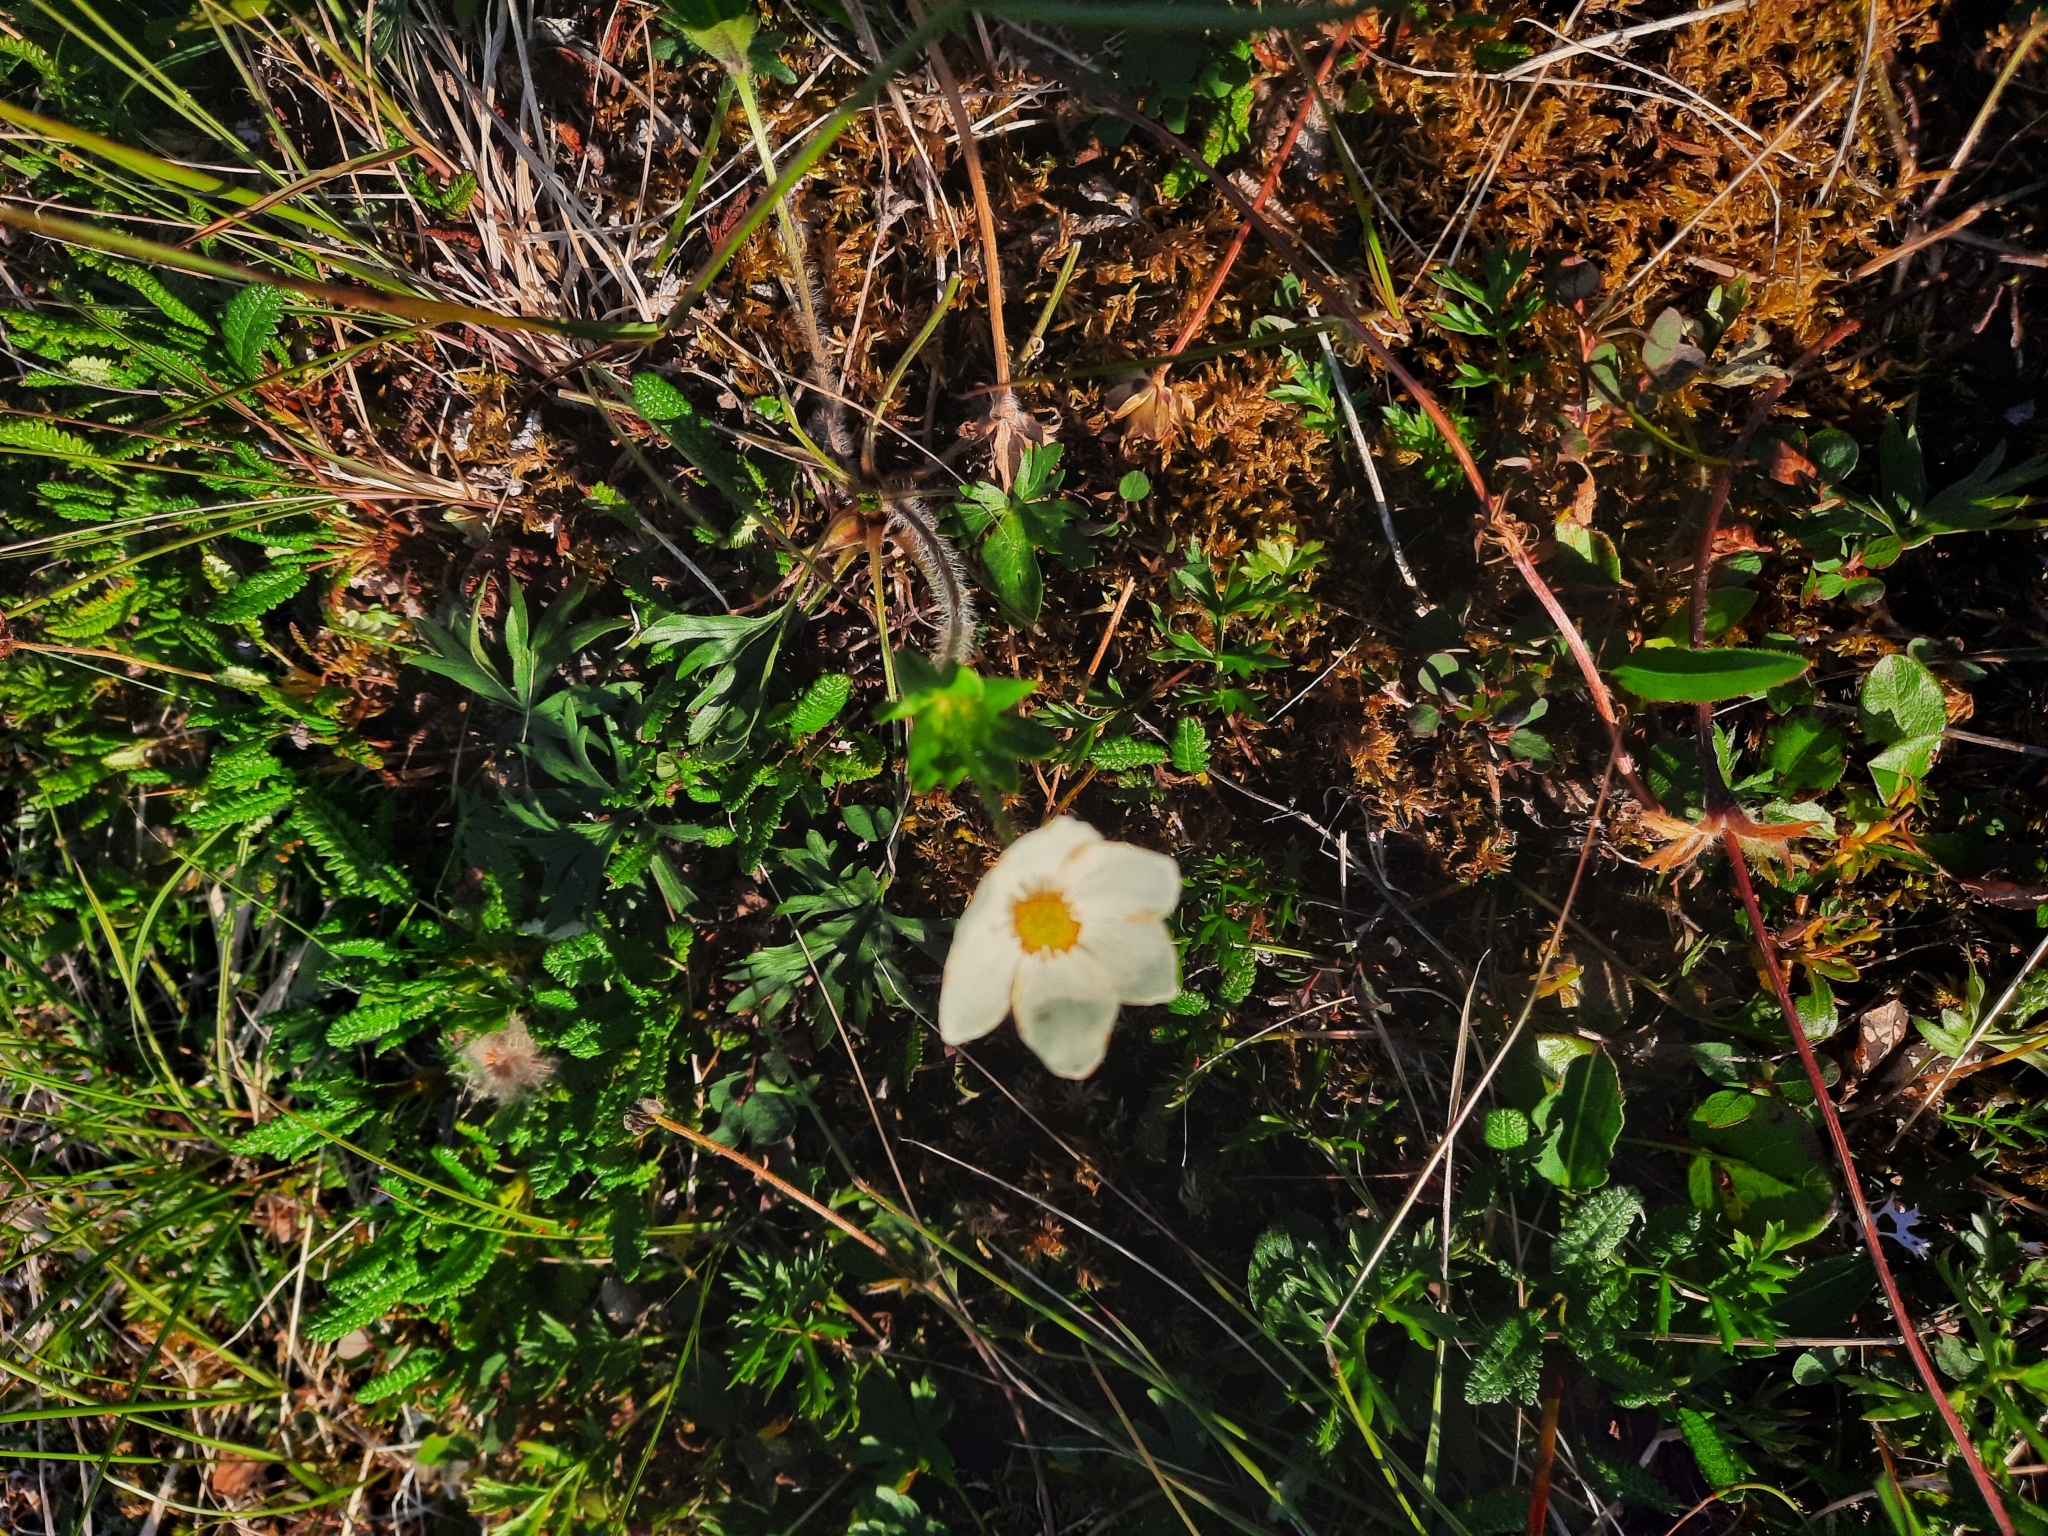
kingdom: Plantae
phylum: Tracheophyta
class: Magnoliopsida
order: Ranunculales
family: Ranunculaceae
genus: Anemonastrum
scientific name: Anemonastrum narcissiflorum
